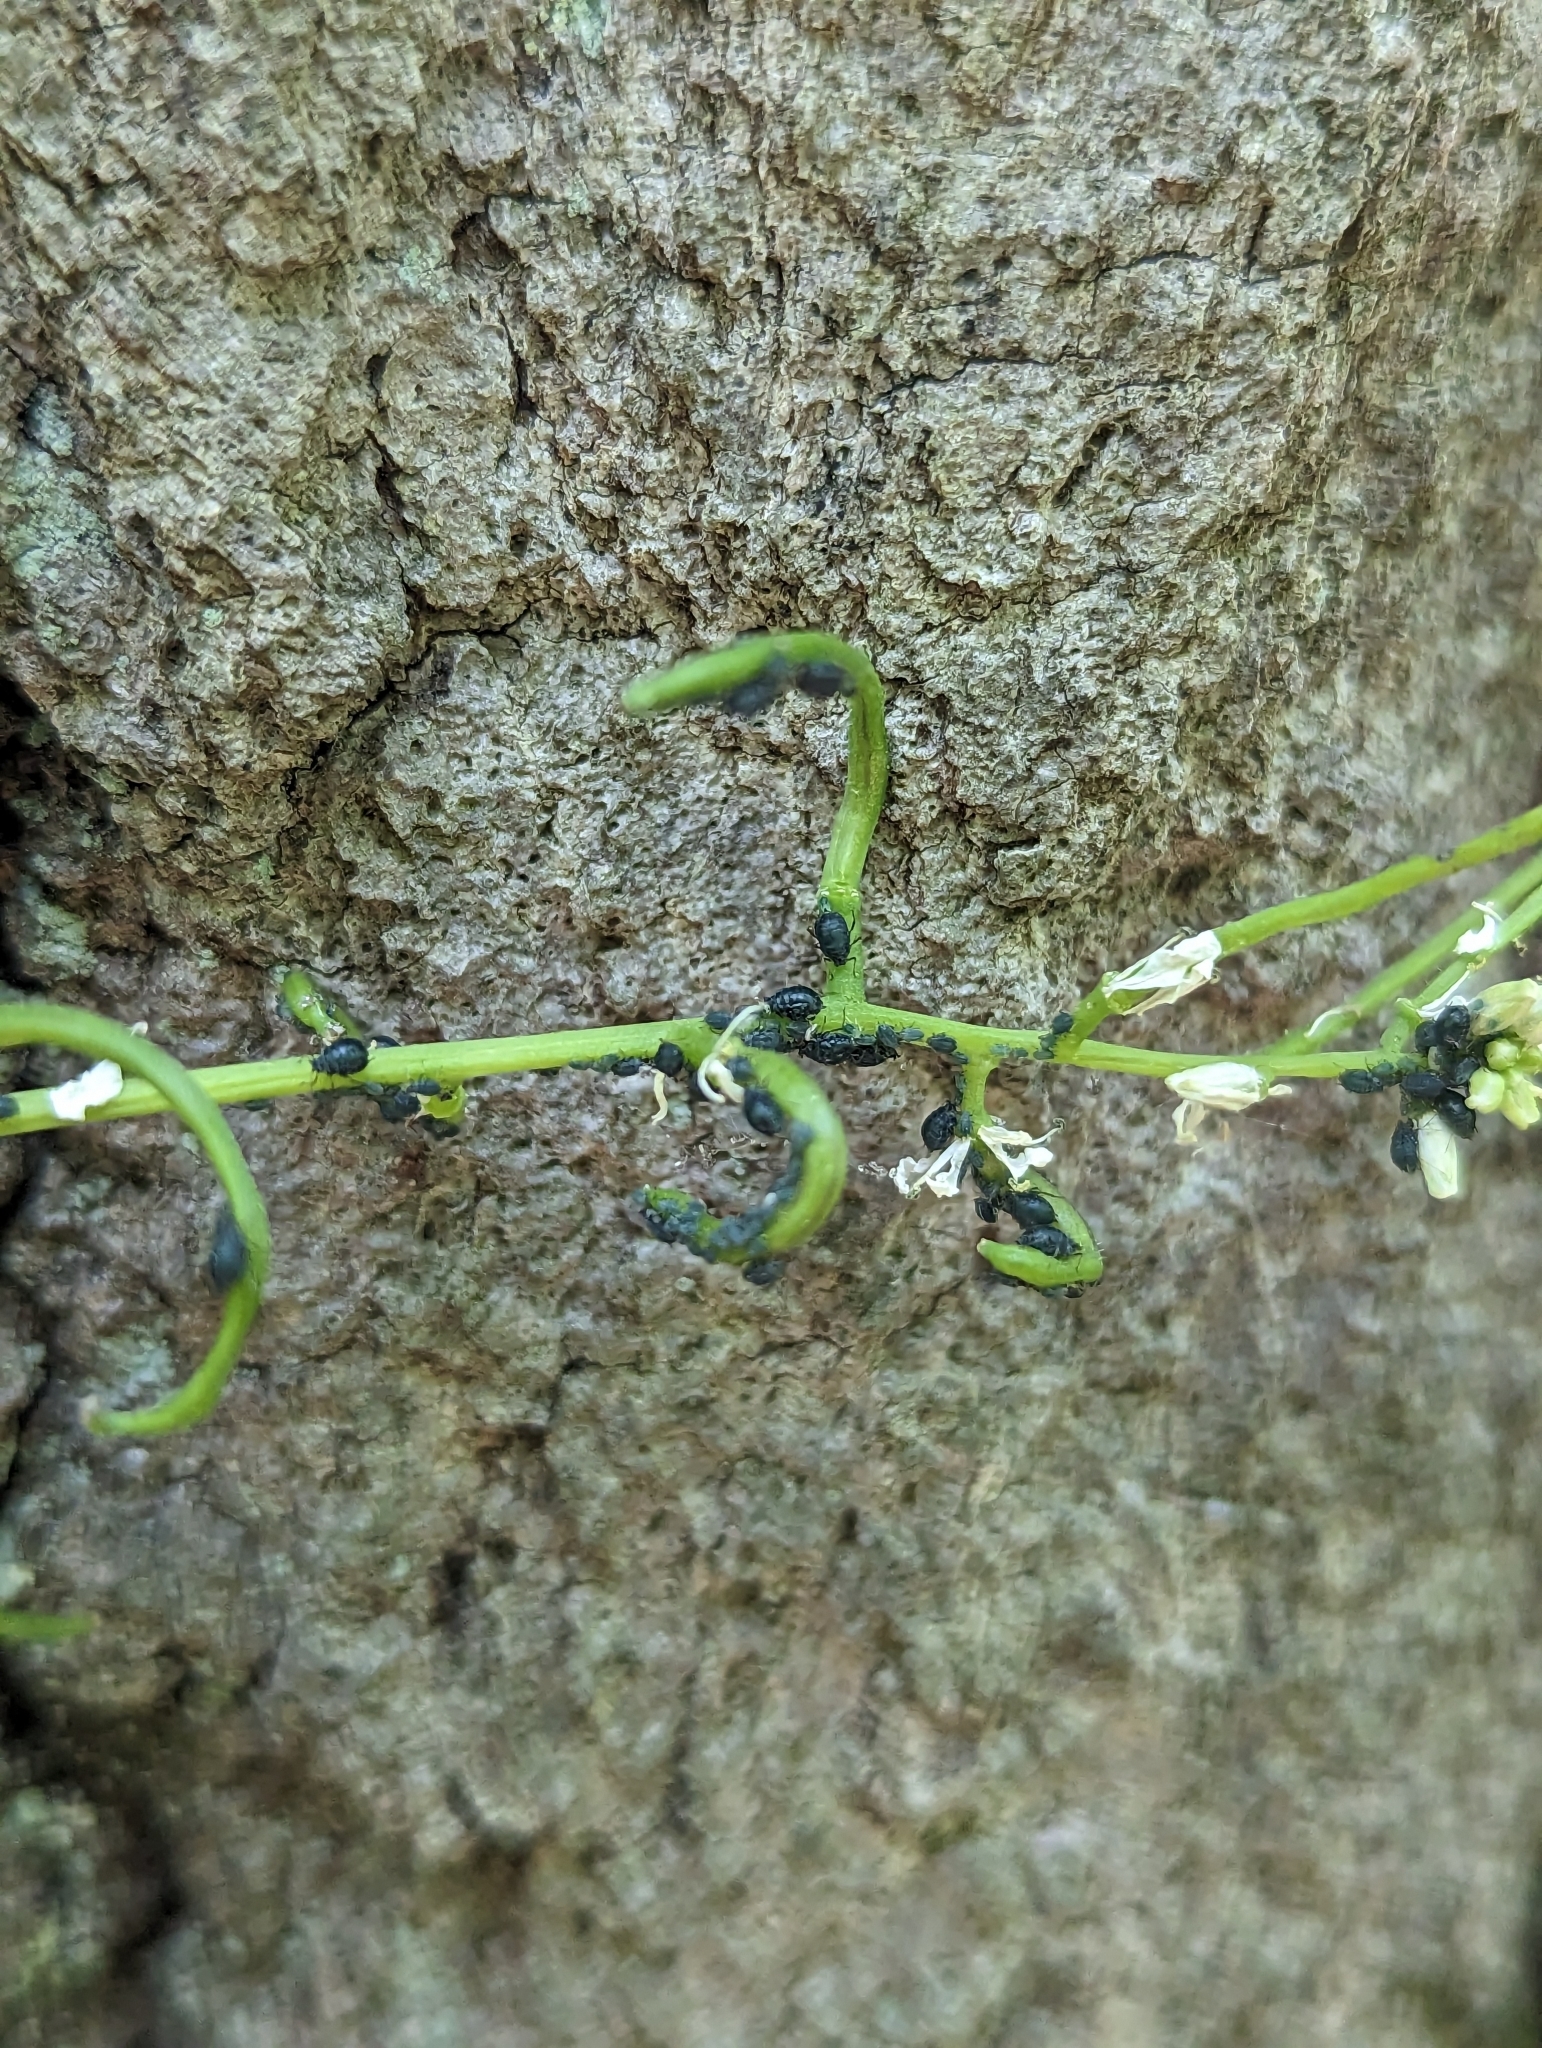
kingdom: Animalia
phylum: Arthropoda
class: Insecta
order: Hemiptera
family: Aphididae
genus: Lipaphis
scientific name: Lipaphis alliariae
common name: Granade aphid
